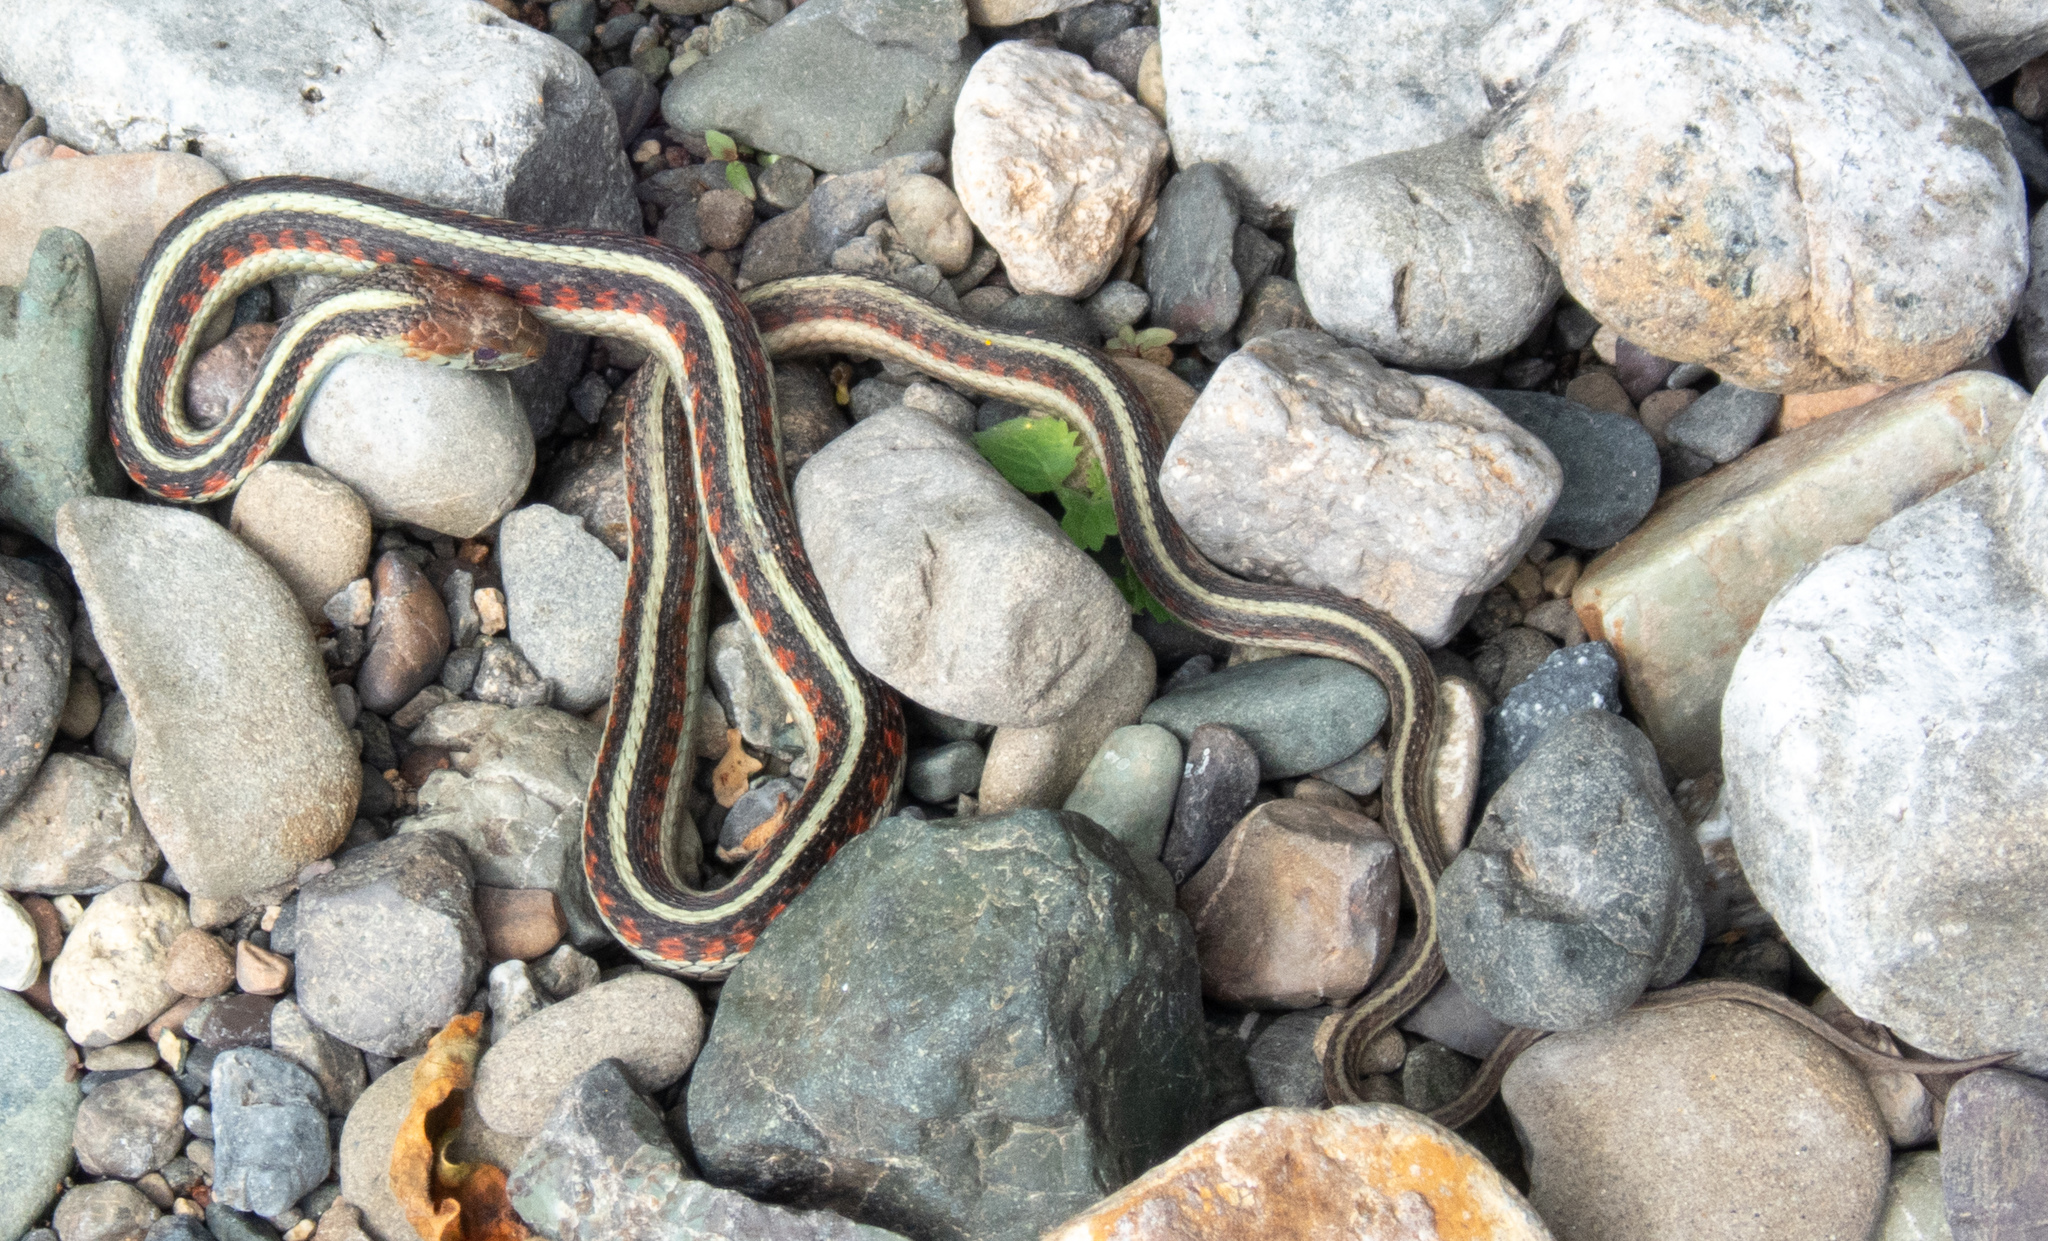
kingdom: Animalia
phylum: Chordata
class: Squamata
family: Colubridae
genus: Thamnophis
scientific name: Thamnophis sirtalis
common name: Common garter snake
